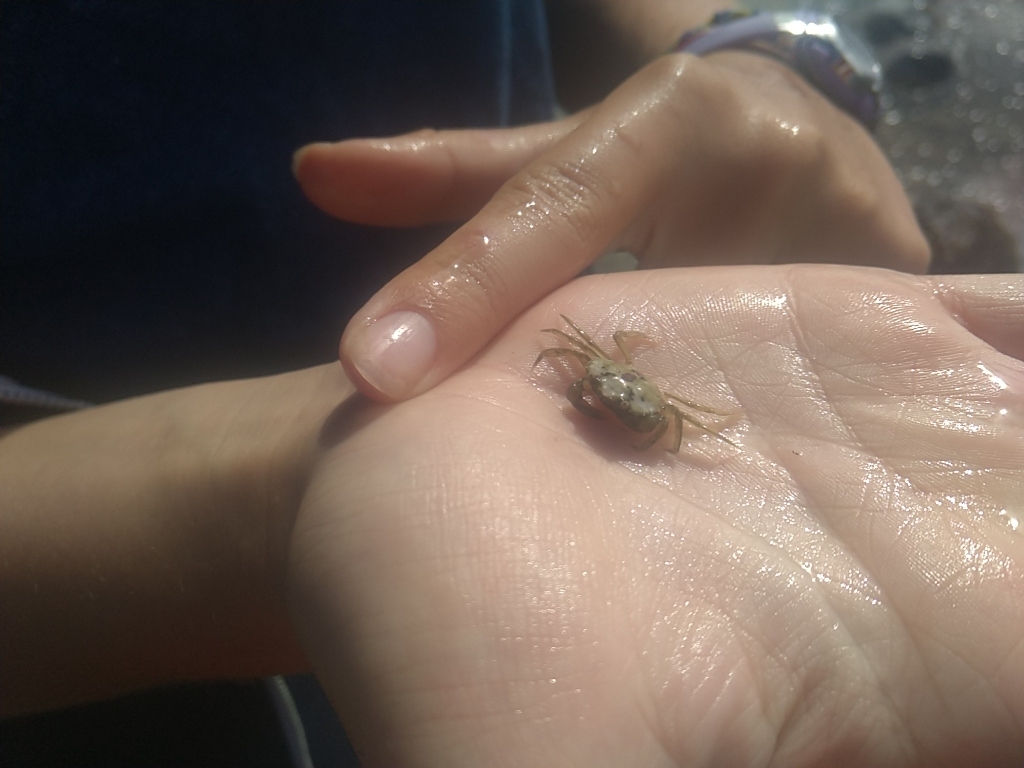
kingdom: Animalia
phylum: Arthropoda
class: Malacostraca
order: Decapoda
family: Carcinidae
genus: Carcinus
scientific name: Carcinus maenas
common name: European green crab
